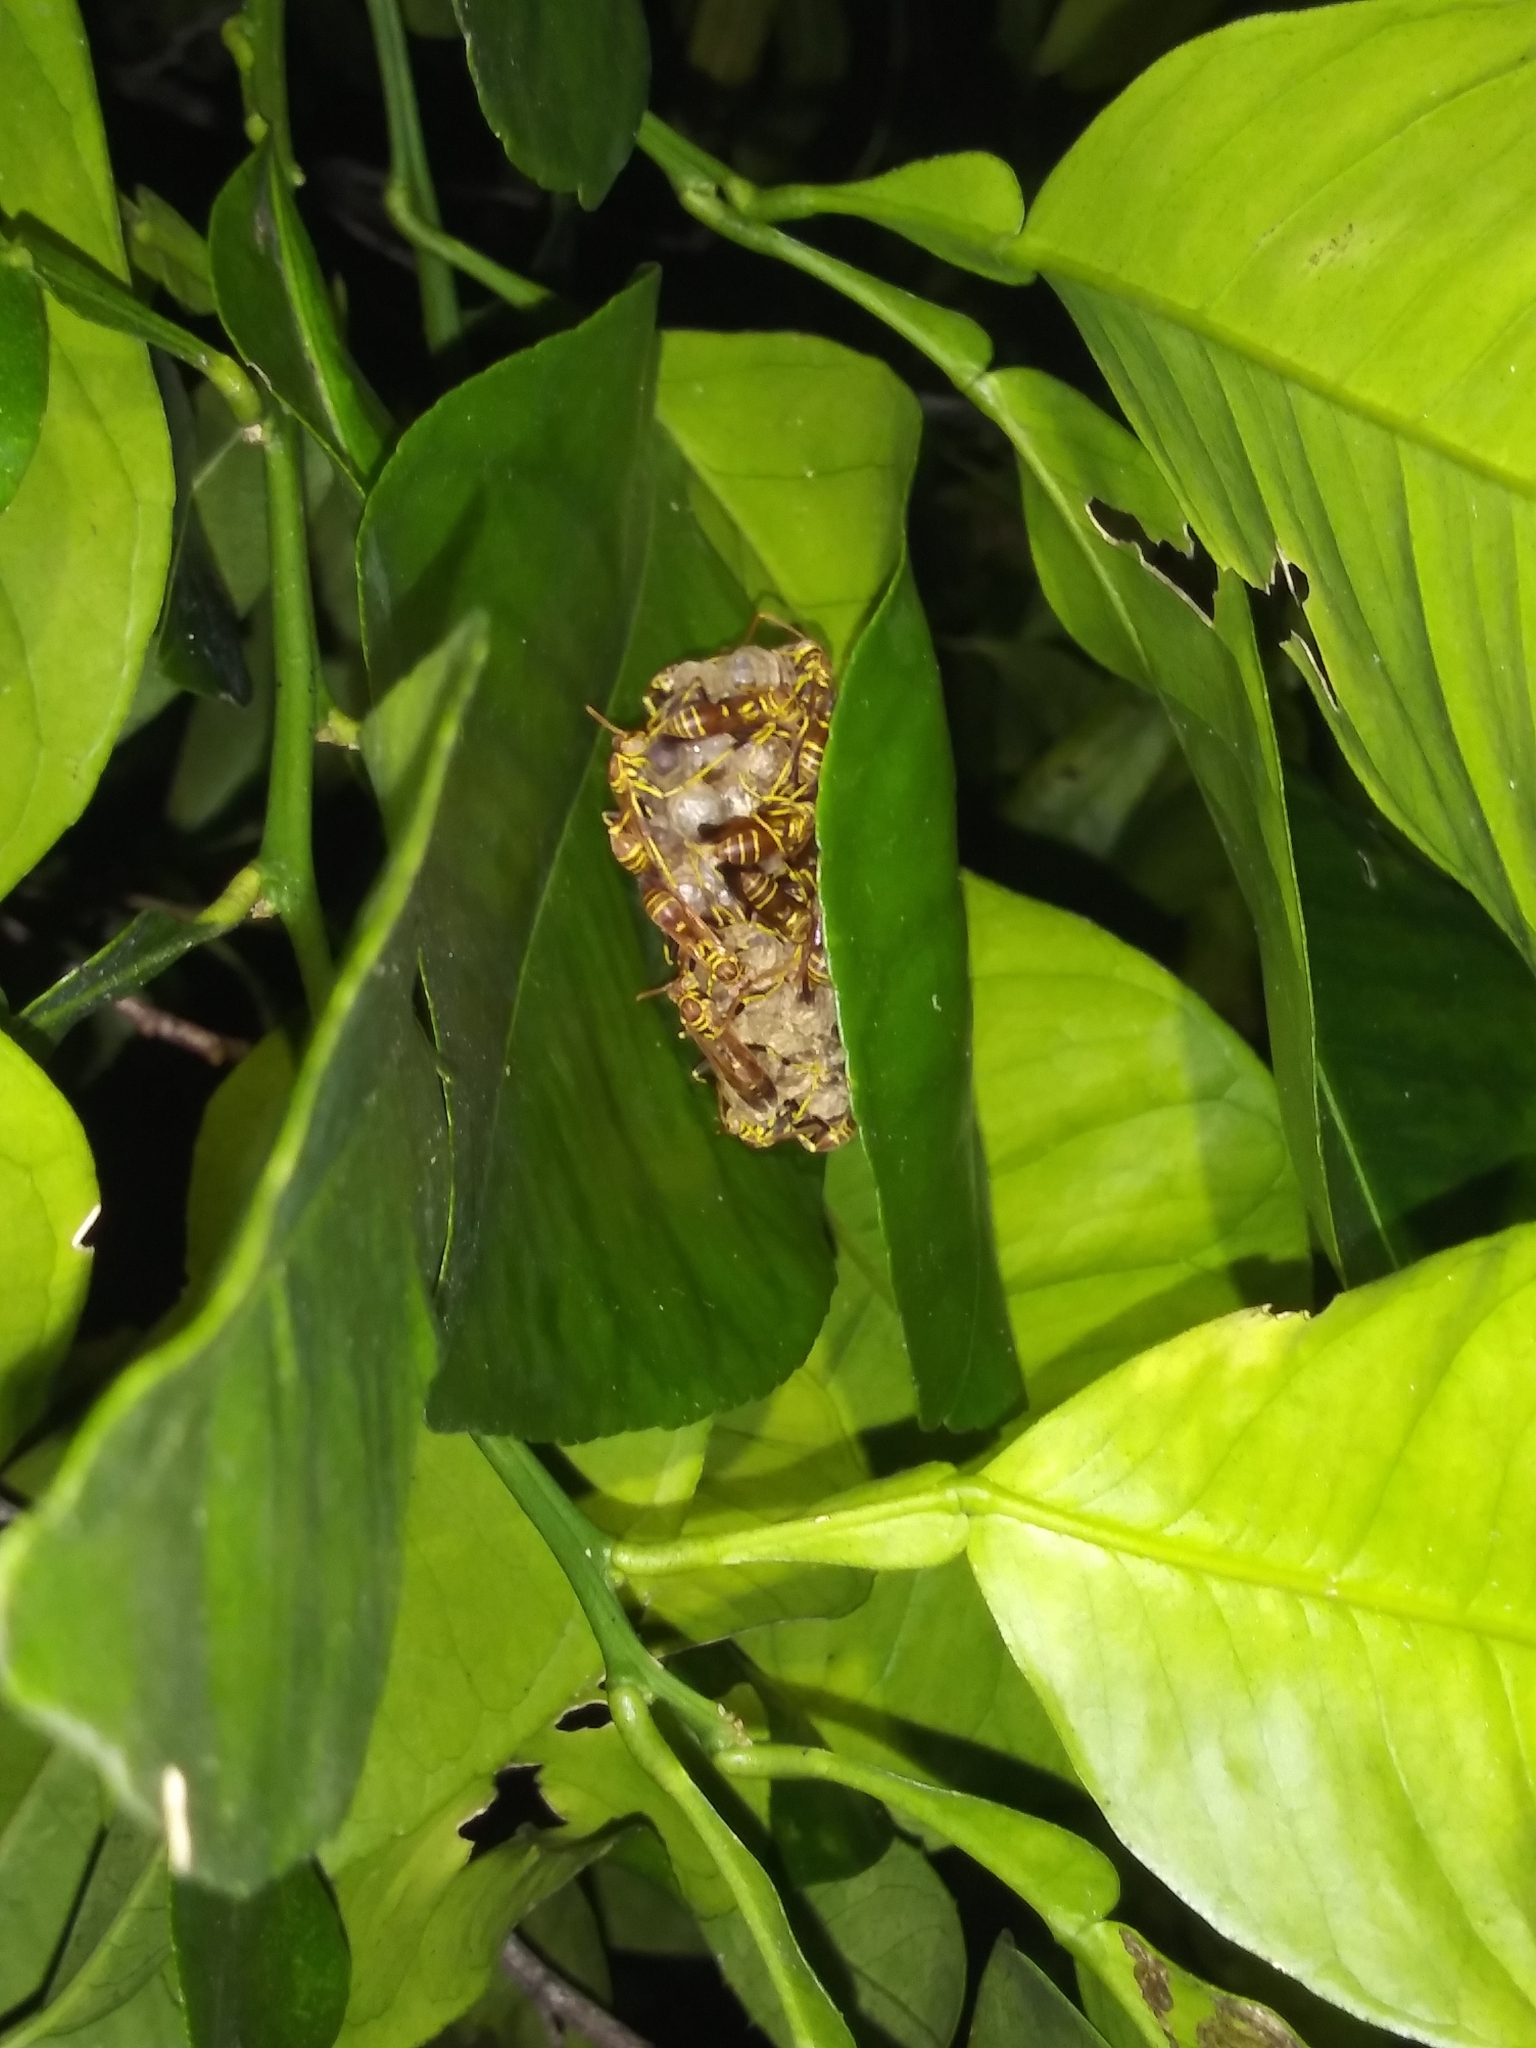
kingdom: Animalia
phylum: Arthropoda
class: Insecta
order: Hymenoptera
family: Vespidae
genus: Mischocyttarus
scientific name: Mischocyttarus mexicanus
